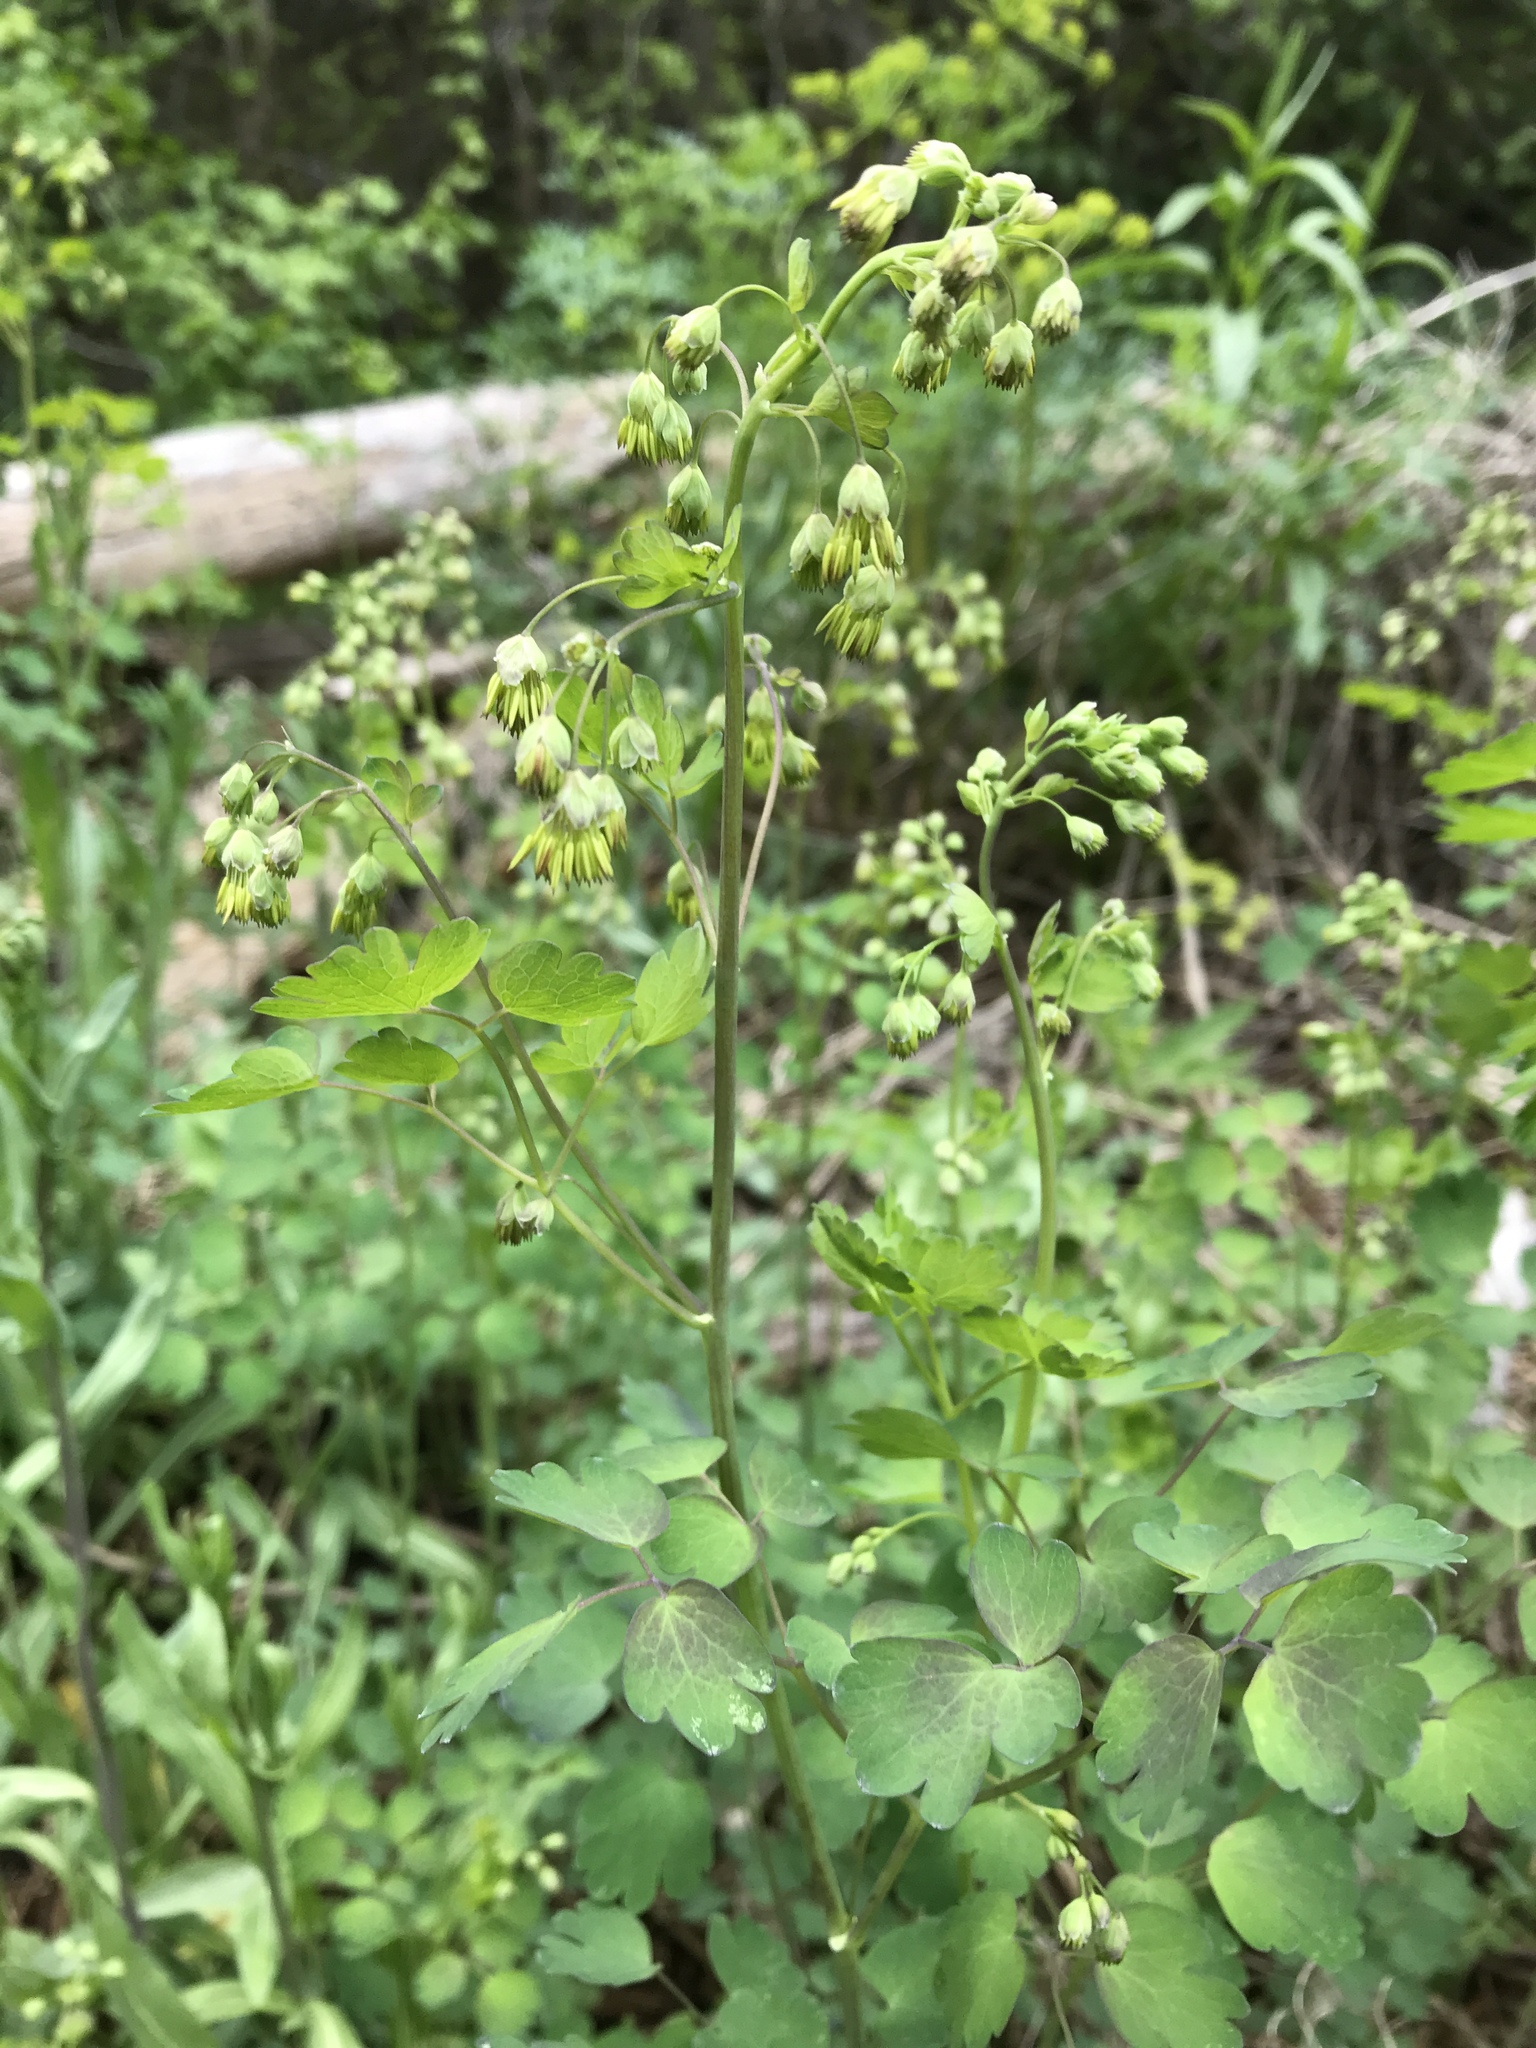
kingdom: Plantae
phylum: Tracheophyta
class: Magnoliopsida
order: Ranunculales
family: Ranunculaceae
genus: Thalictrum
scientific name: Thalictrum fendleri
